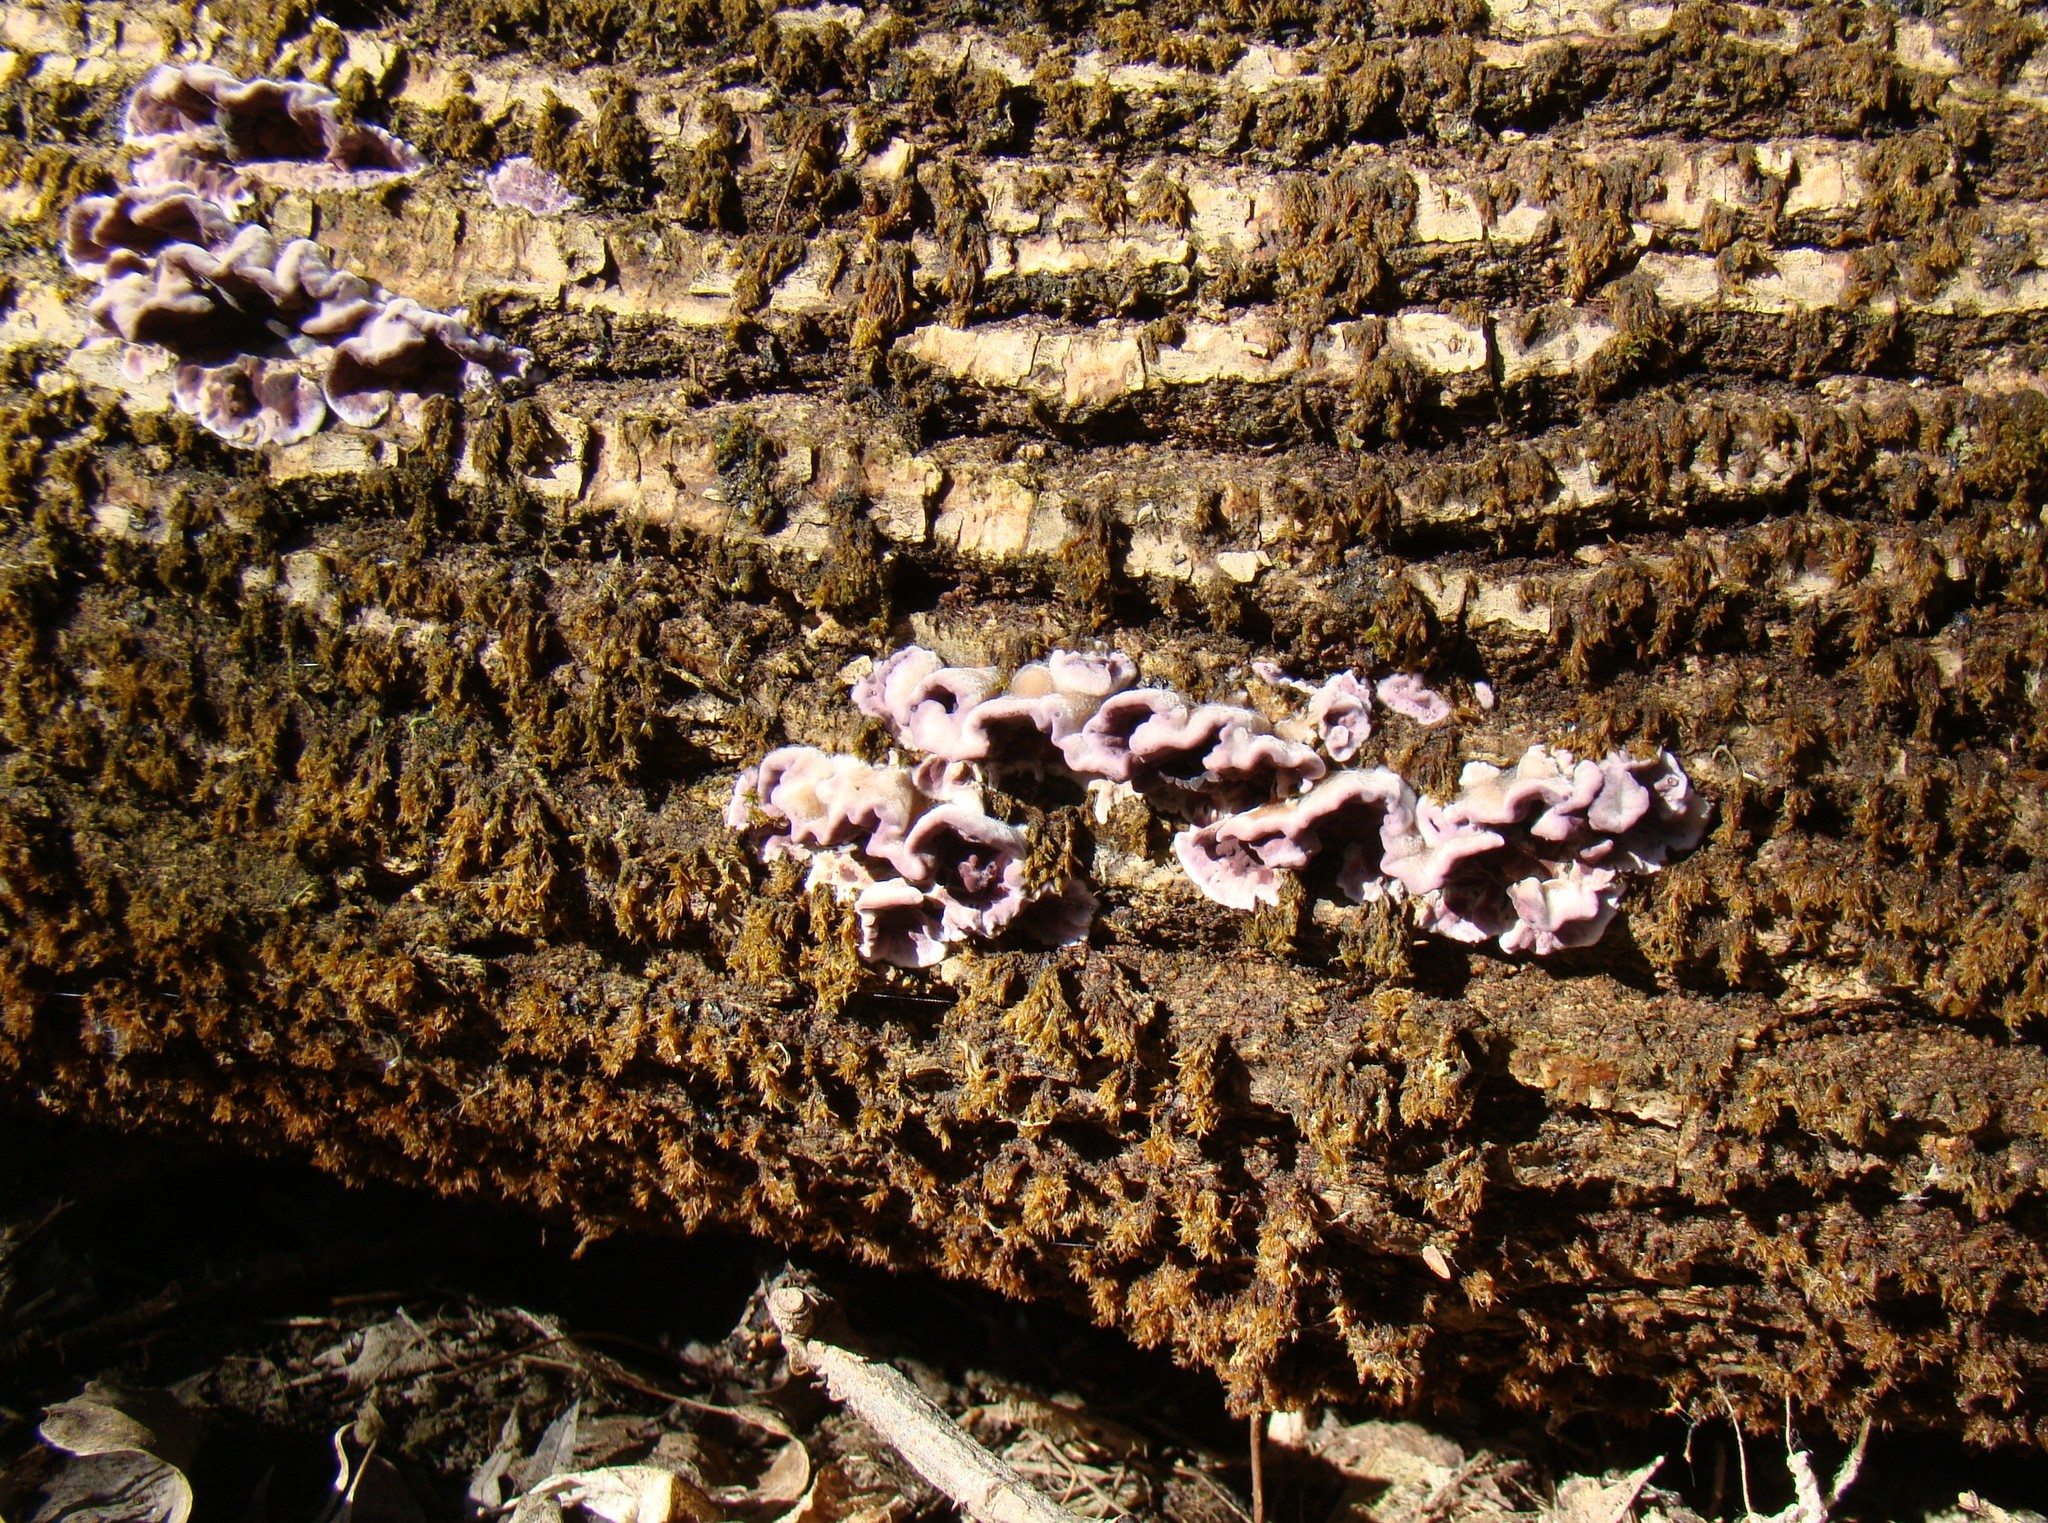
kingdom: Fungi
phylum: Basidiomycota
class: Agaricomycetes
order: Agaricales
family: Cyphellaceae
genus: Chondrostereum
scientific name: Chondrostereum purpureum
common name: Silver leaf disease
